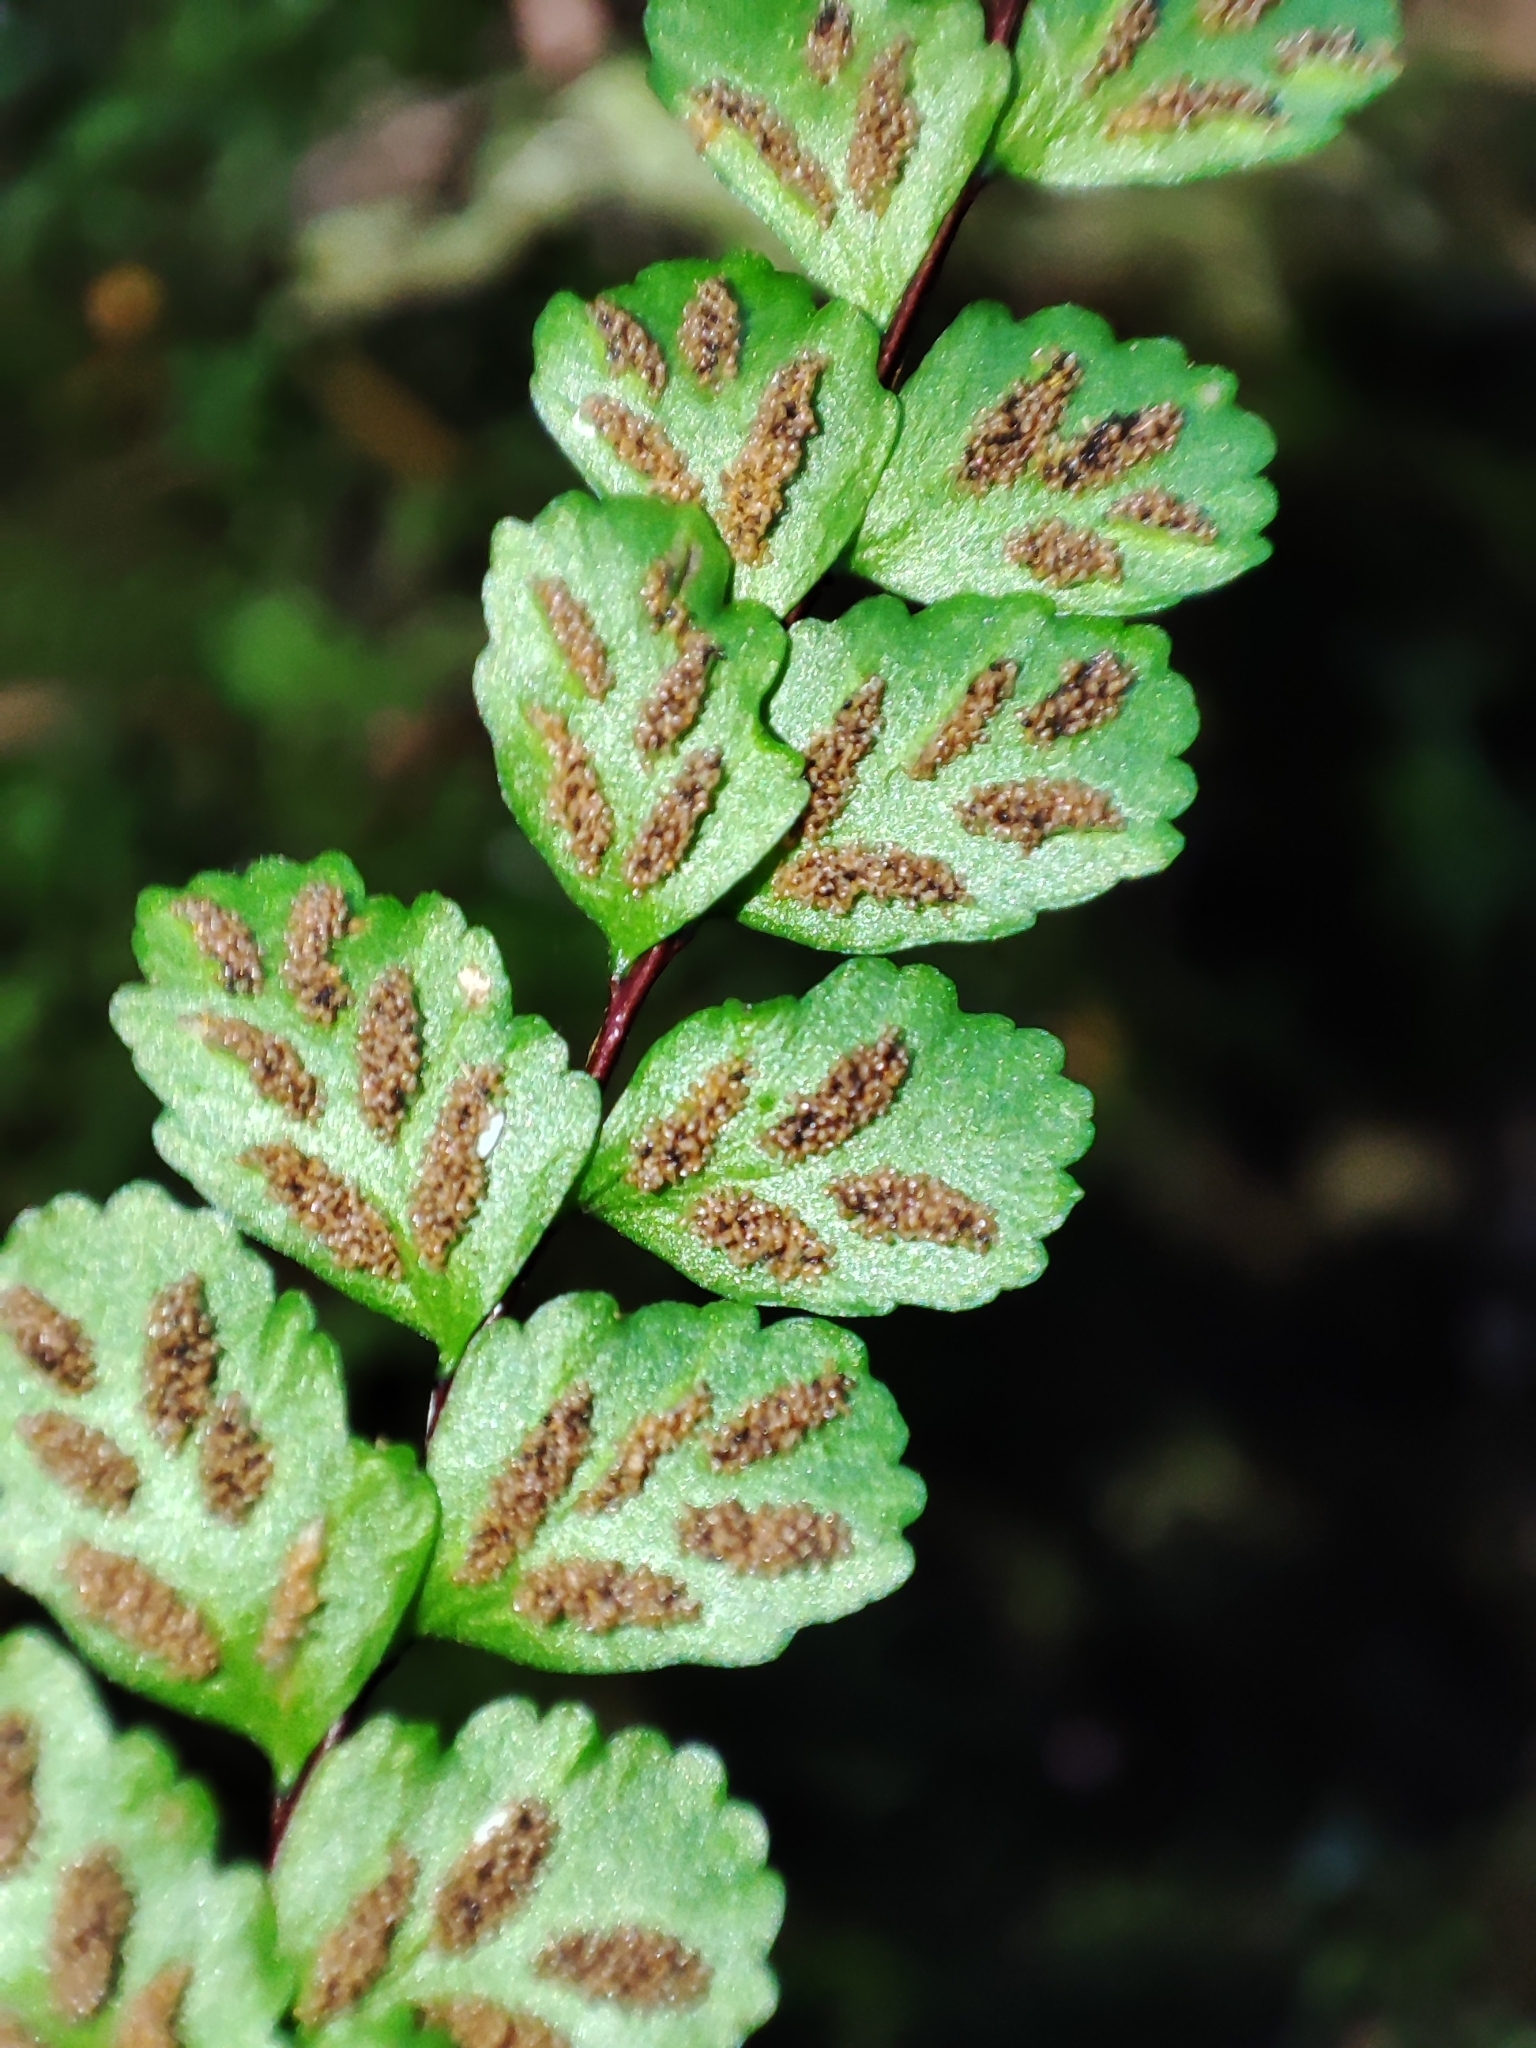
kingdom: Plantae
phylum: Tracheophyta
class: Polypodiopsida
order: Polypodiales
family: Aspleniaceae
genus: Asplenium
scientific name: Asplenium trichomanes
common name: Maidenhair spleenwort
